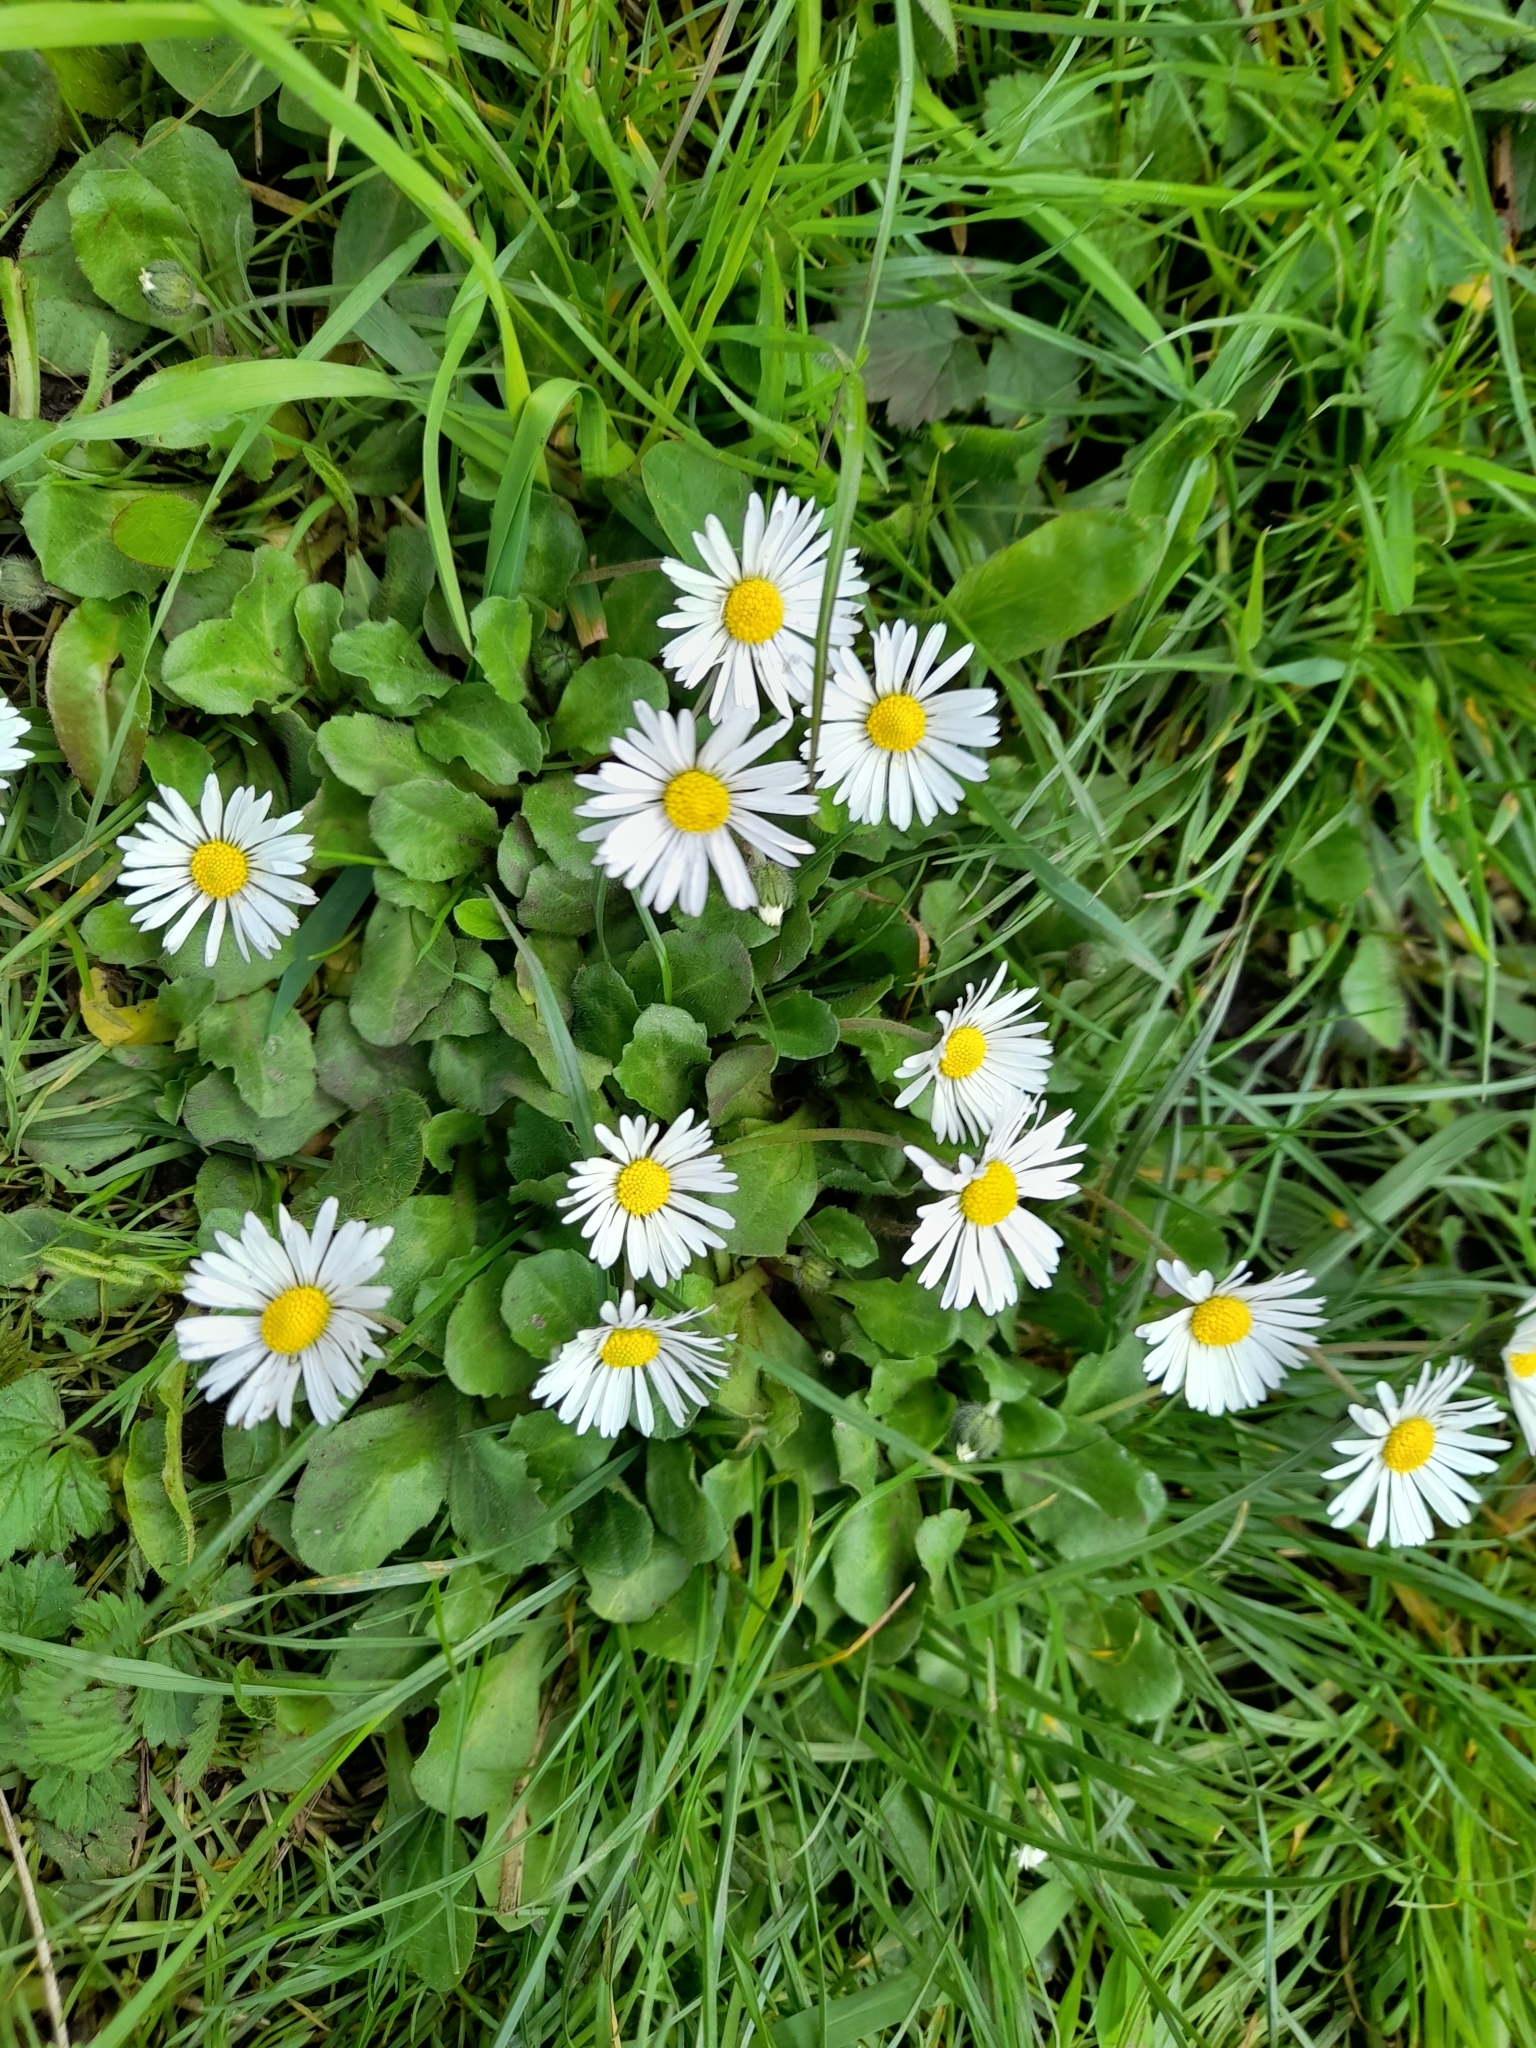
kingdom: Plantae
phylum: Tracheophyta
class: Magnoliopsida
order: Asterales
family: Asteraceae
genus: Bellis
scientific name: Bellis perennis
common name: Lawndaisy
